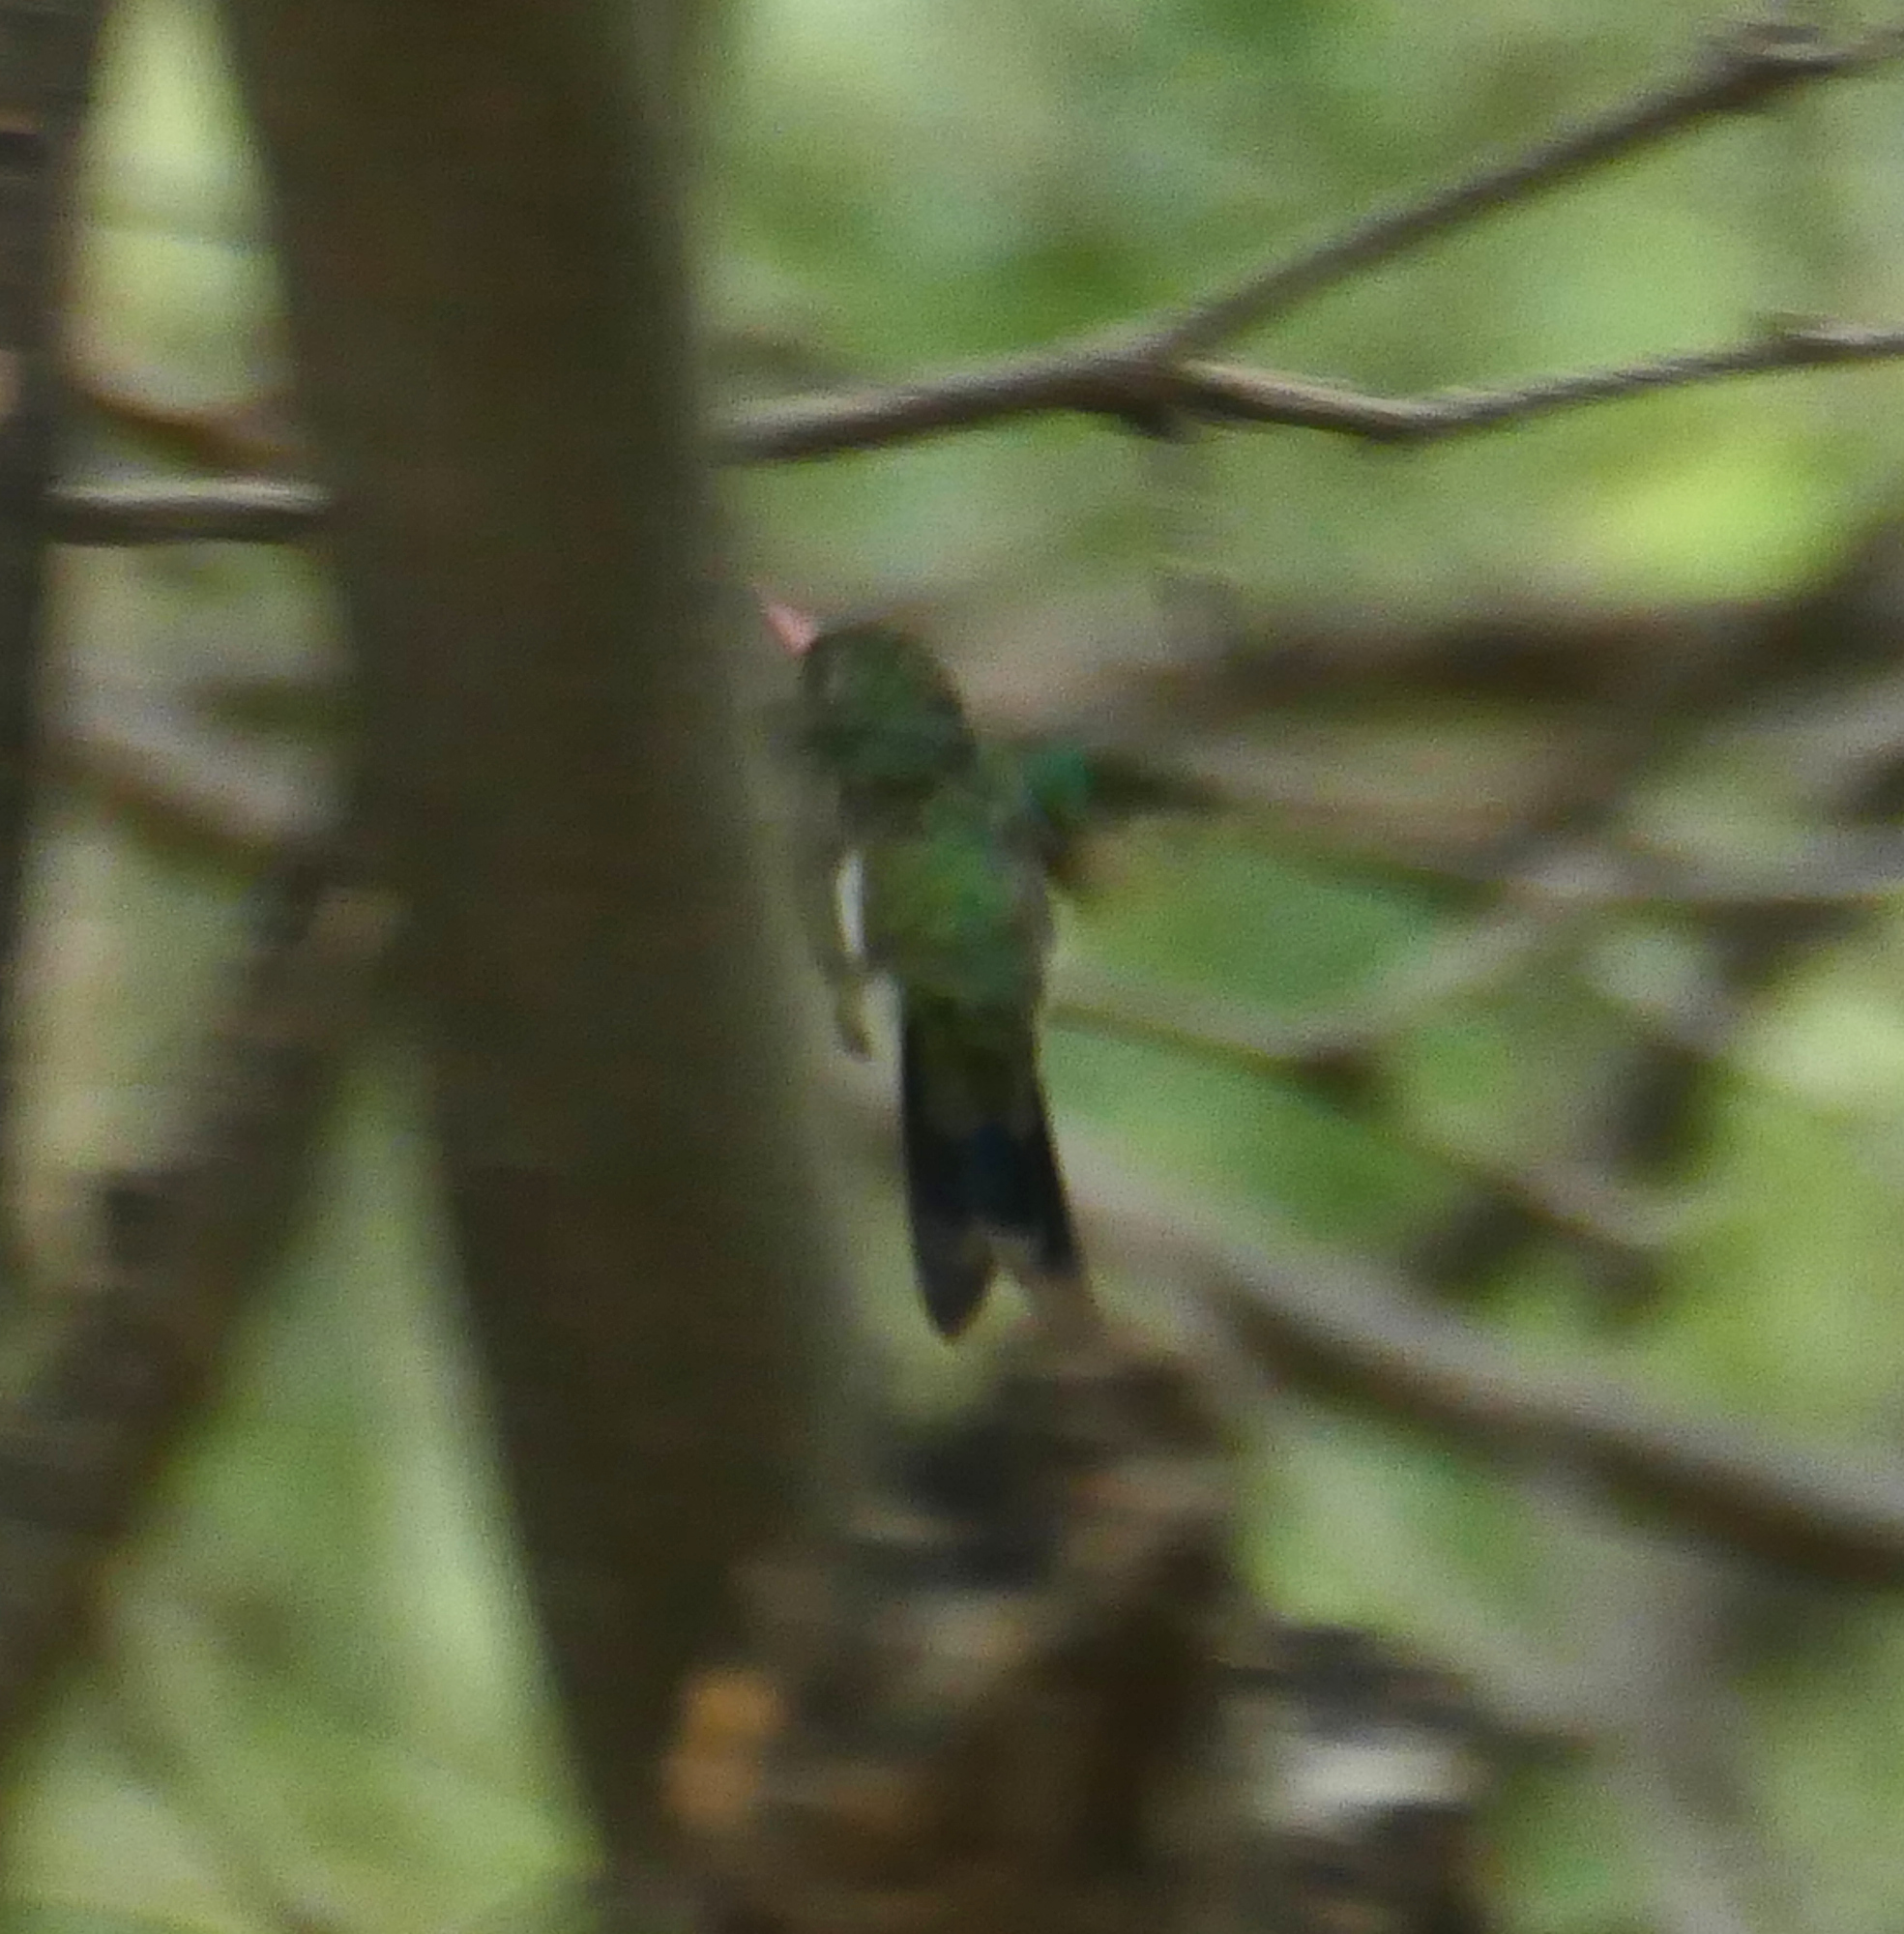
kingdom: Animalia
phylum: Chordata
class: Aves
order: Apodiformes
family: Trochilidae
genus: Cynanthus
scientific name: Cynanthus latirostris
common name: Broad-billed hummingbird
